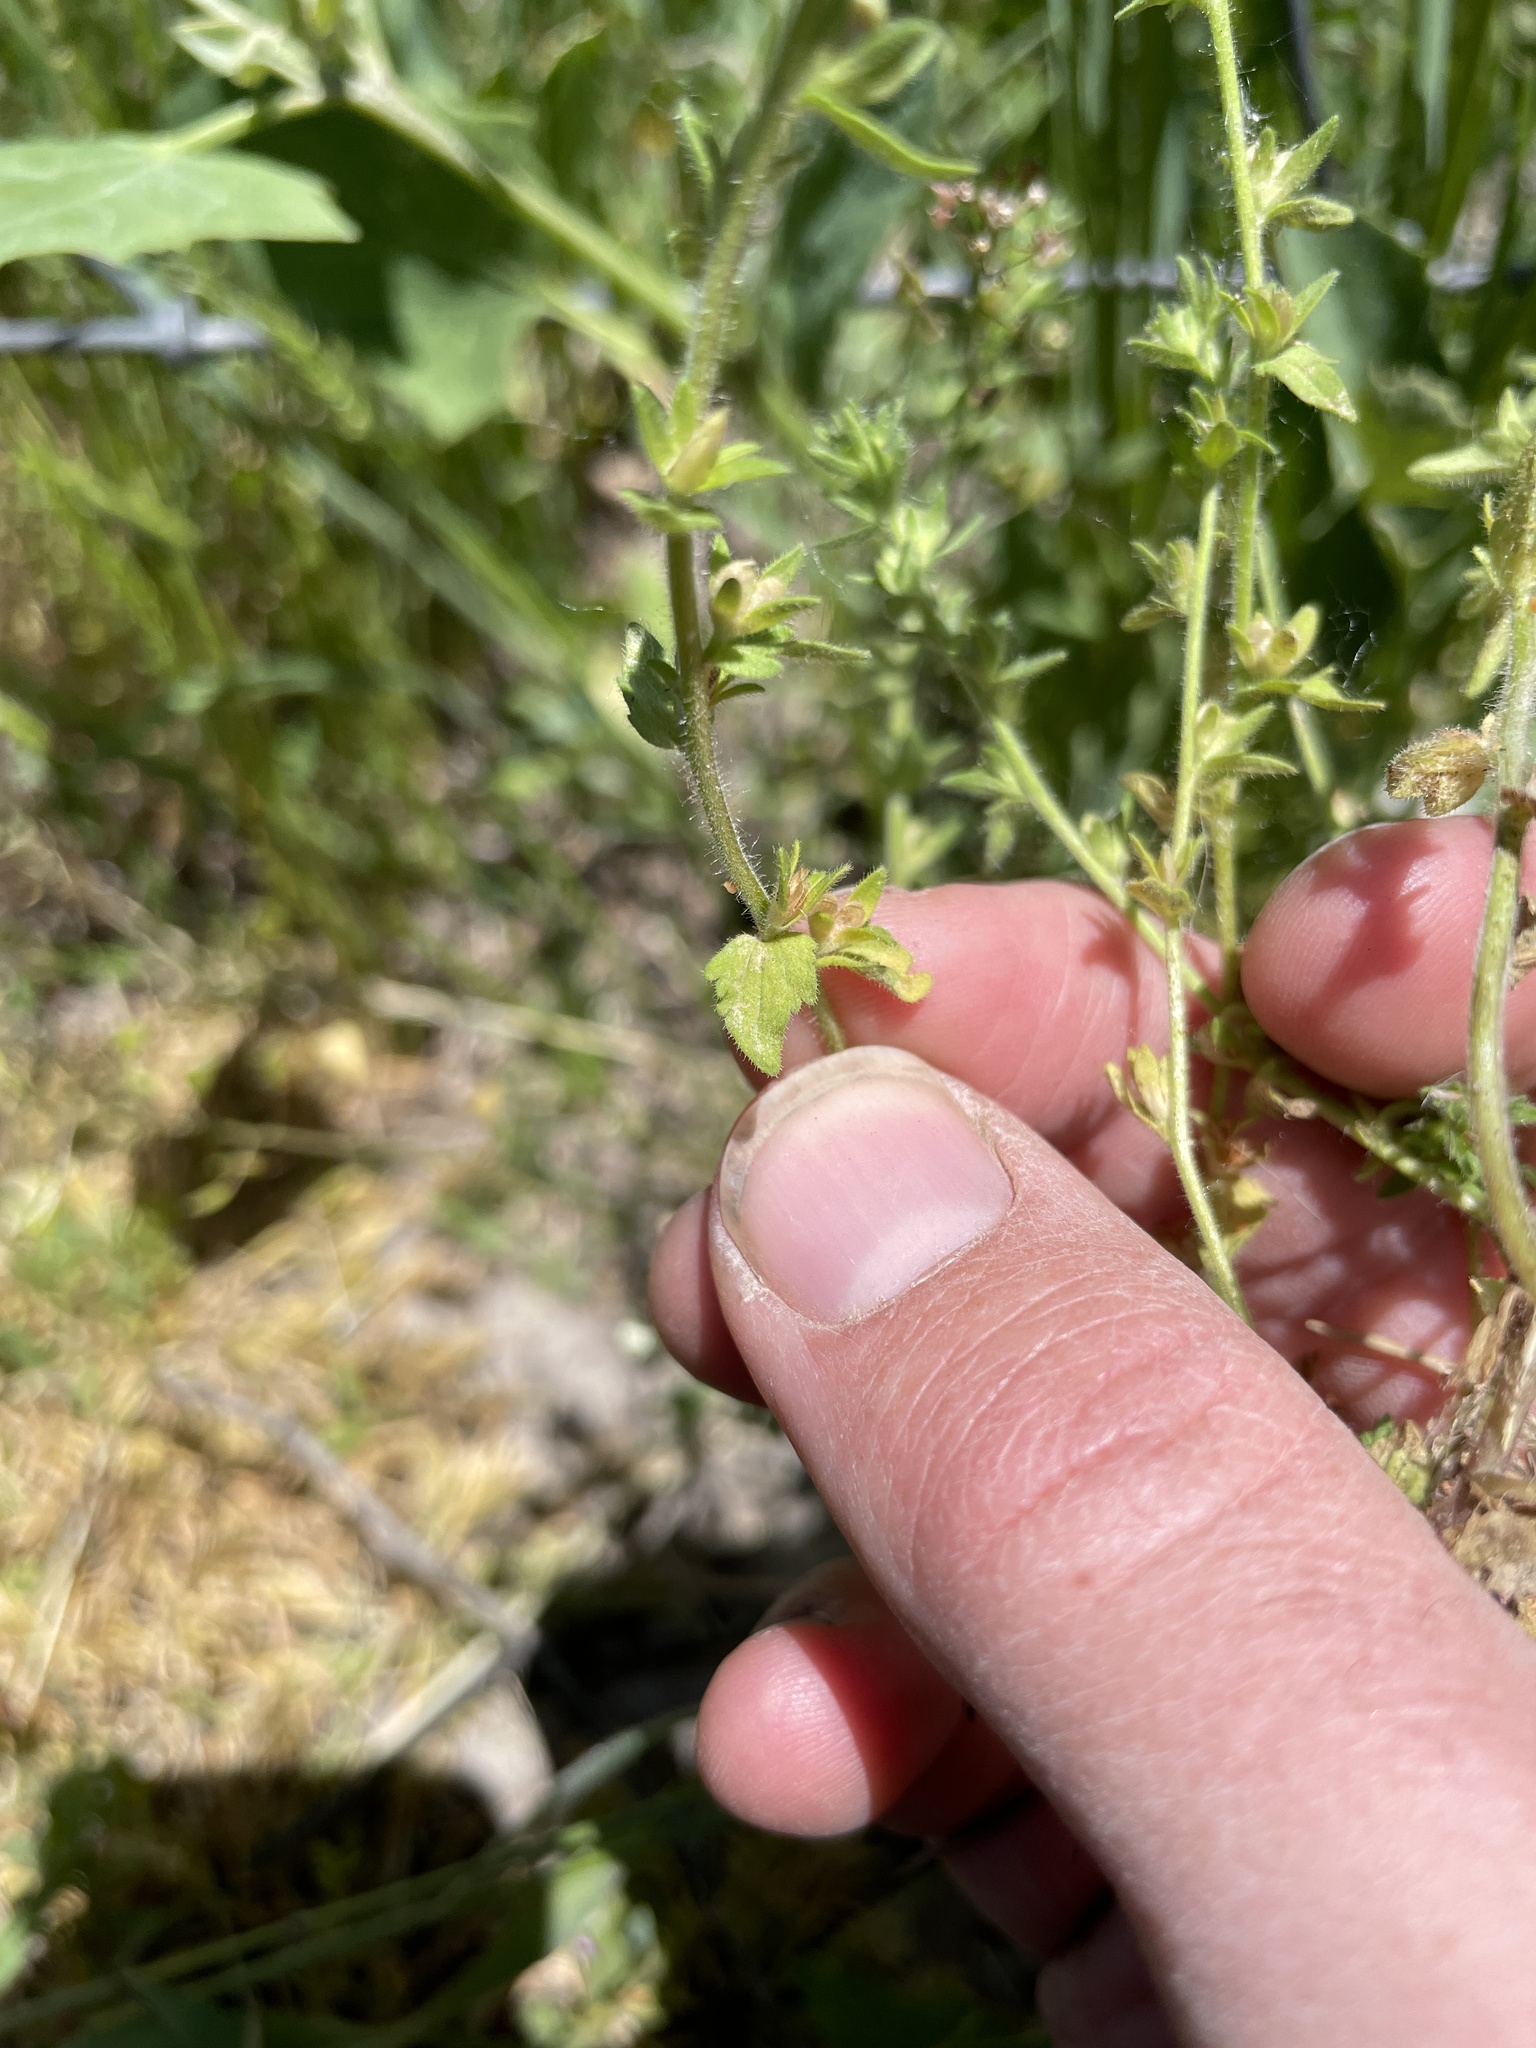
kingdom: Plantae
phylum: Tracheophyta
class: Magnoliopsida
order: Lamiales
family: Plantaginaceae
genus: Veronica
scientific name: Veronica arvensis
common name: Corn speedwell
